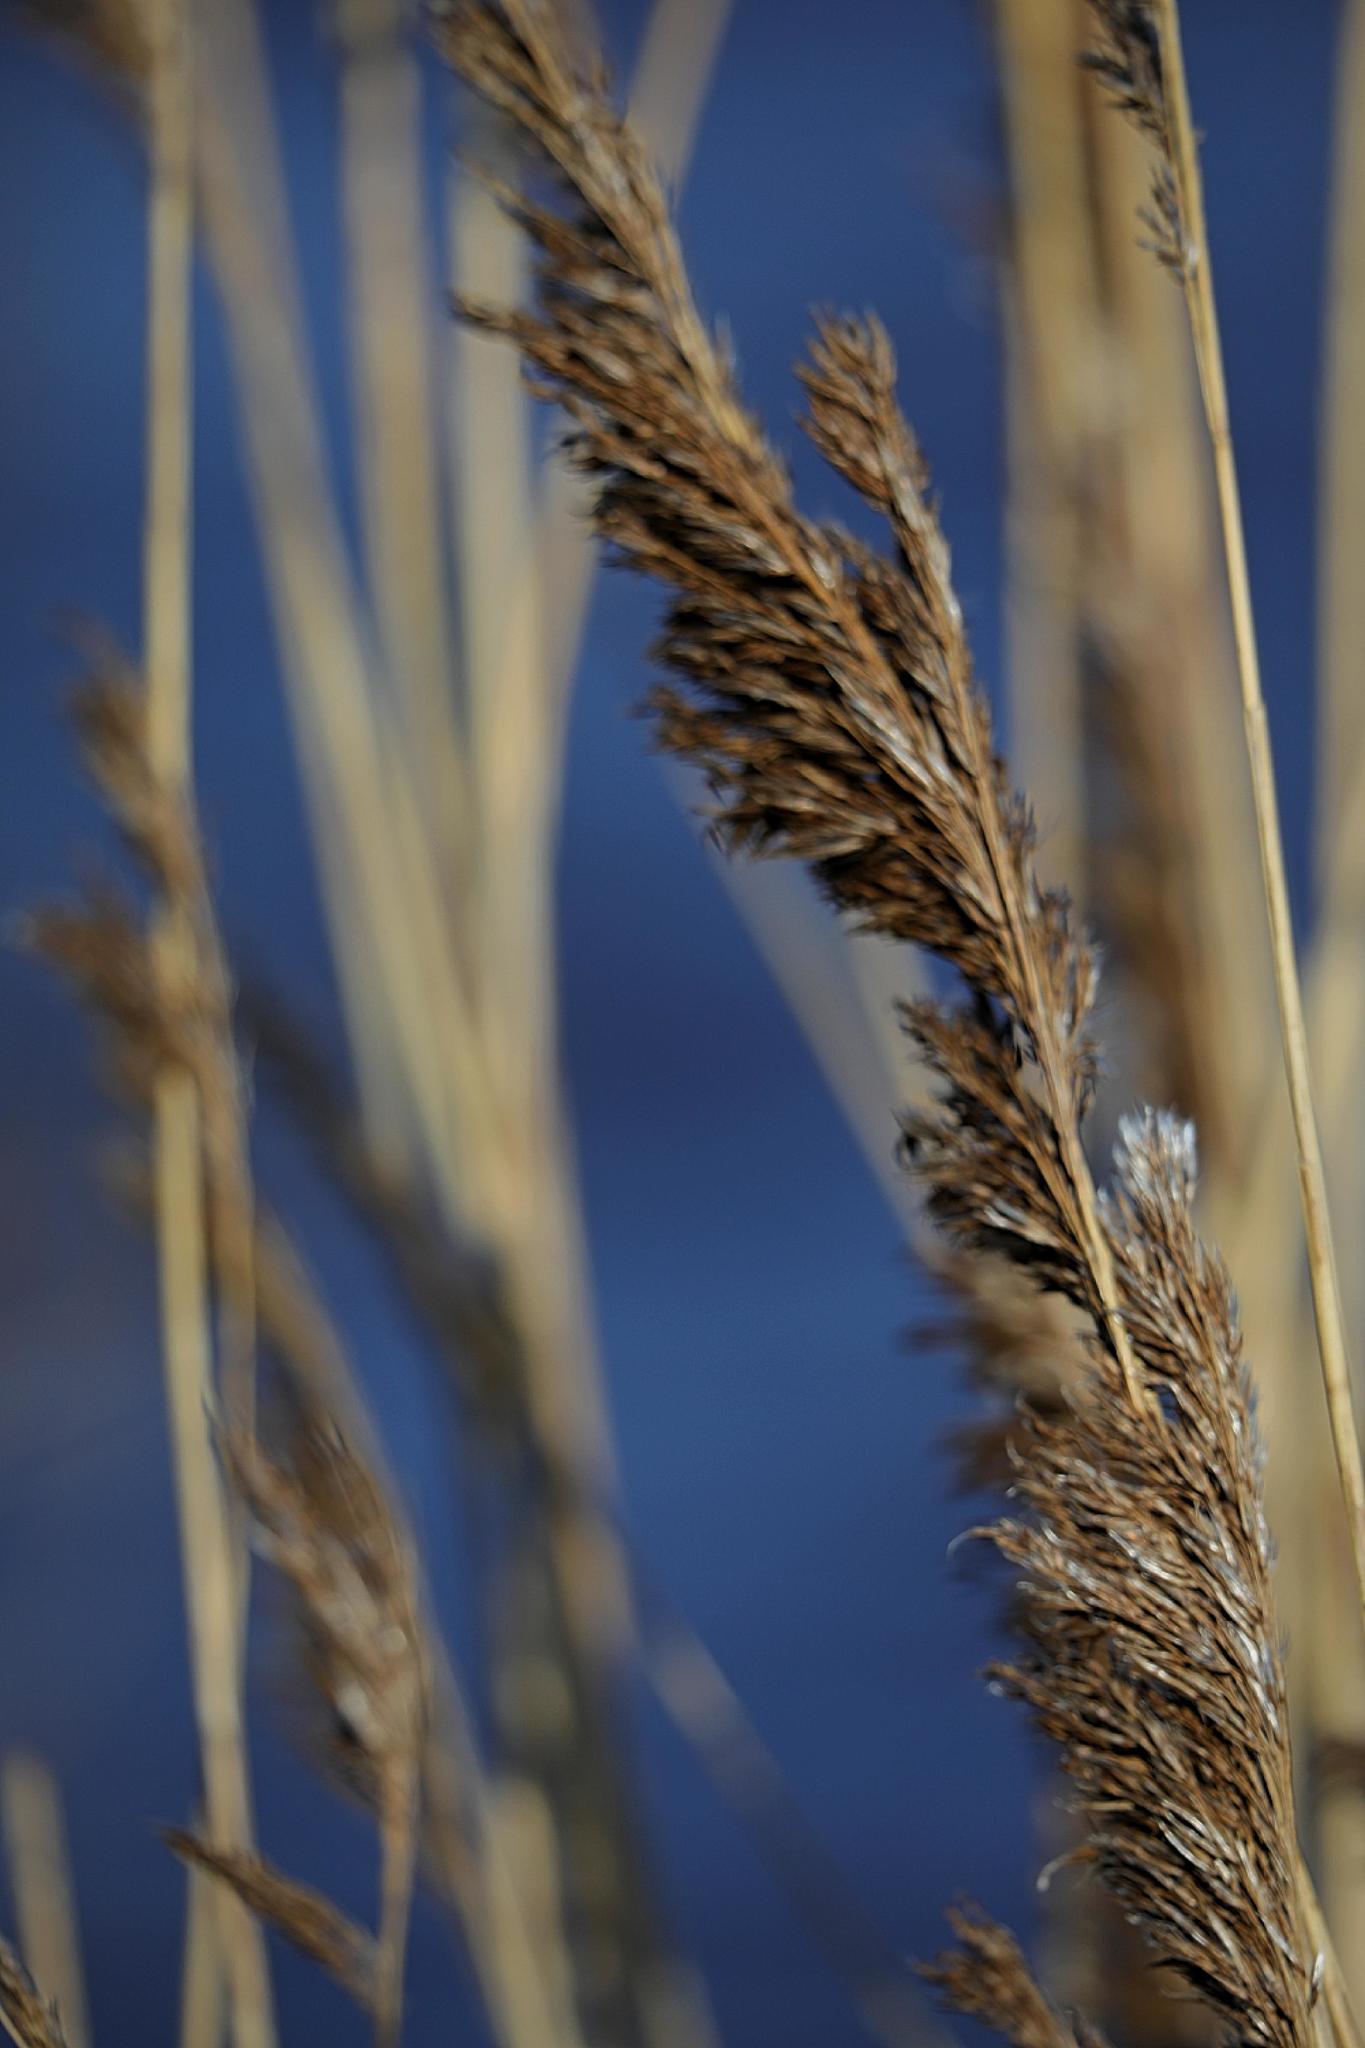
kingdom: Plantae
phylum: Tracheophyta
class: Liliopsida
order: Poales
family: Poaceae
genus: Phragmites
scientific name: Phragmites australis
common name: Common reed
